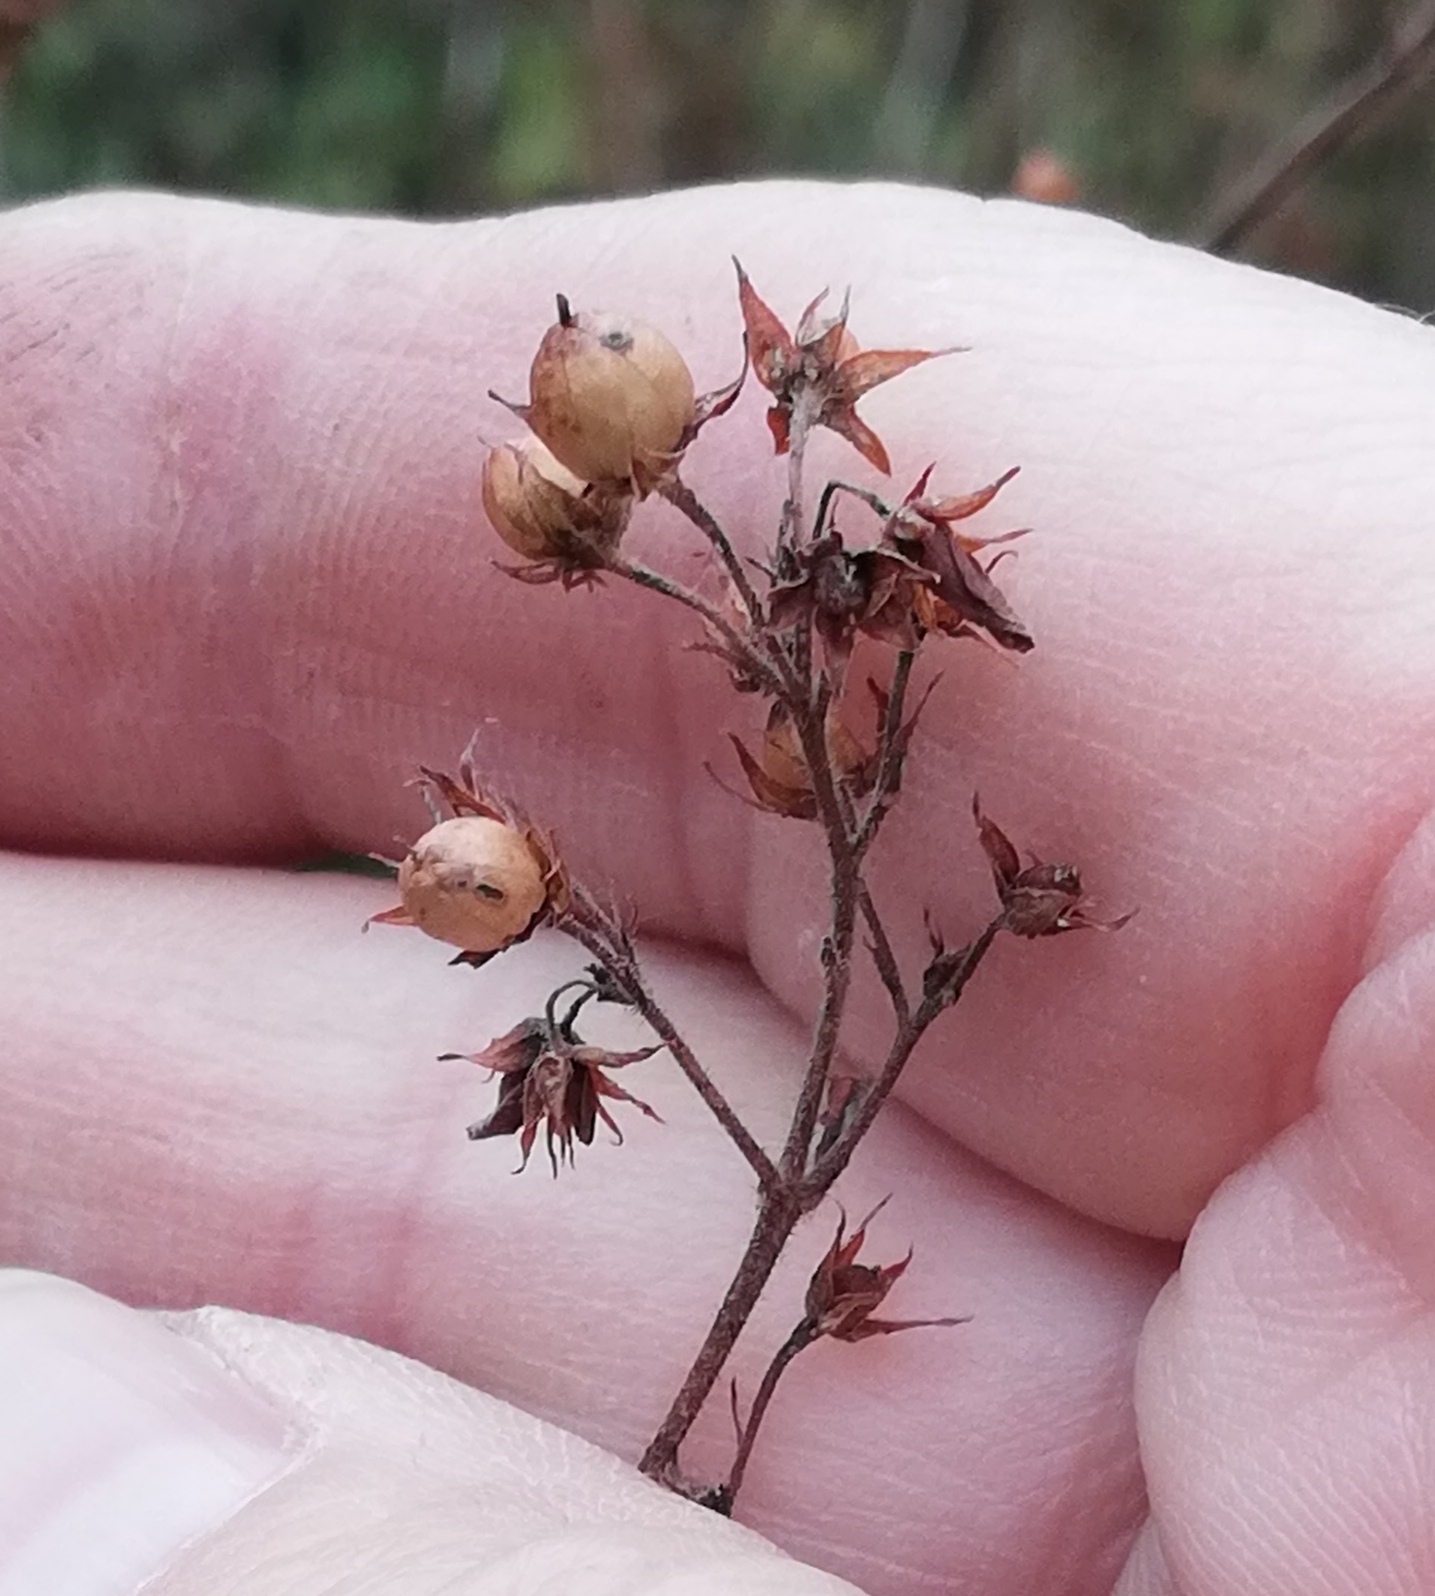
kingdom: Plantae
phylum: Tracheophyta
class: Magnoliopsida
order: Ericales
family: Primulaceae
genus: Lysimachia
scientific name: Lysimachia vulgaris
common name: Yellow loosestrife
